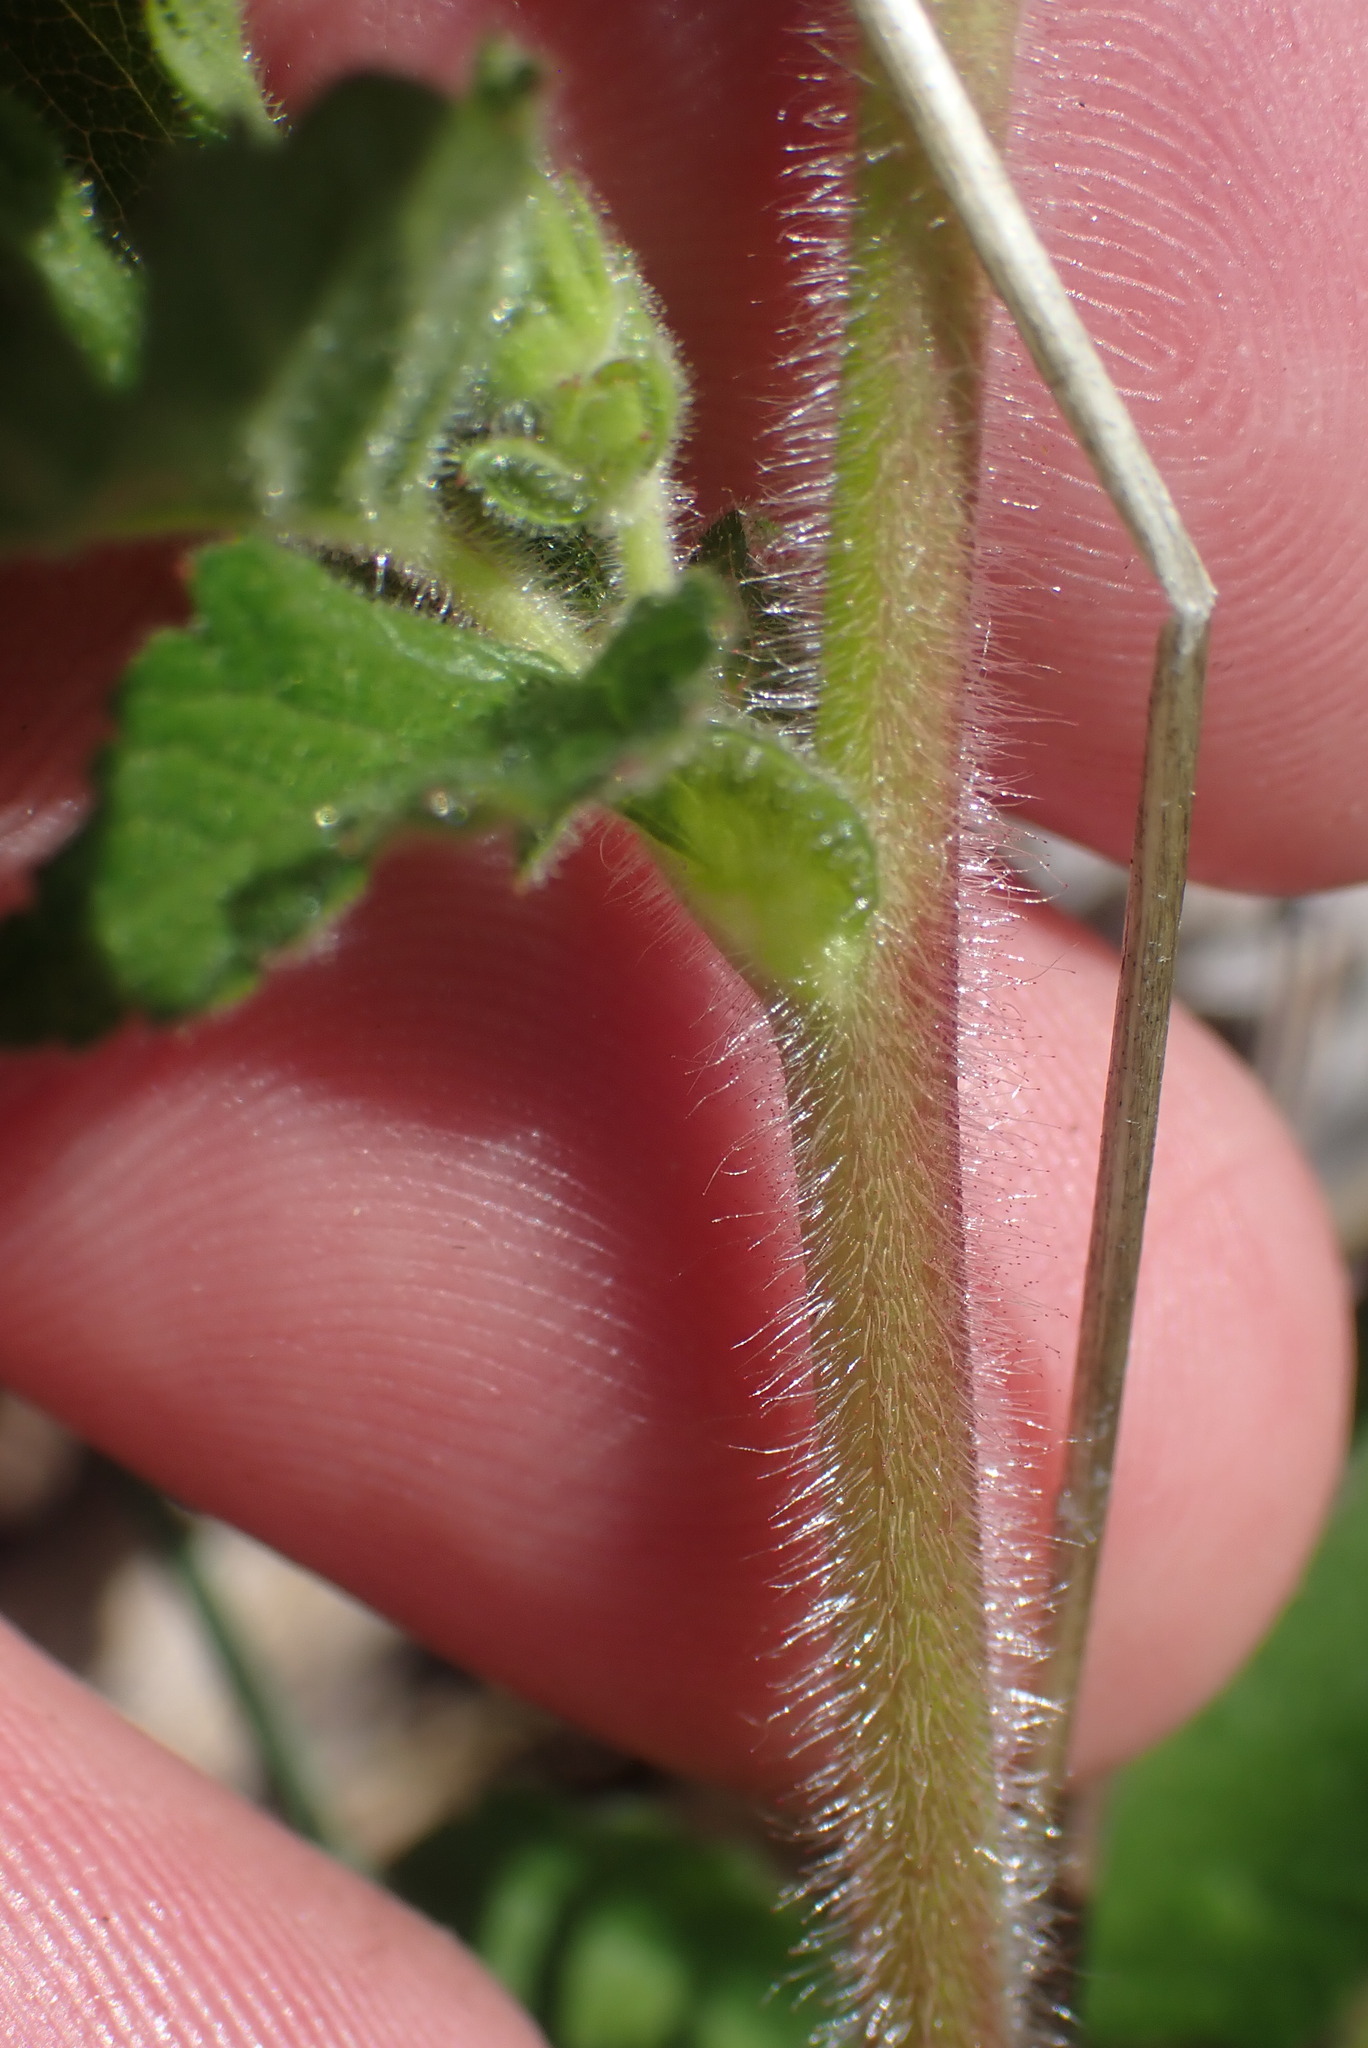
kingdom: Plantae
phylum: Tracheophyta
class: Magnoliopsida
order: Rosales
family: Rosaceae
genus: Drymocallis
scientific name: Drymocallis glandulosa
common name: Sticky cinquefoil
